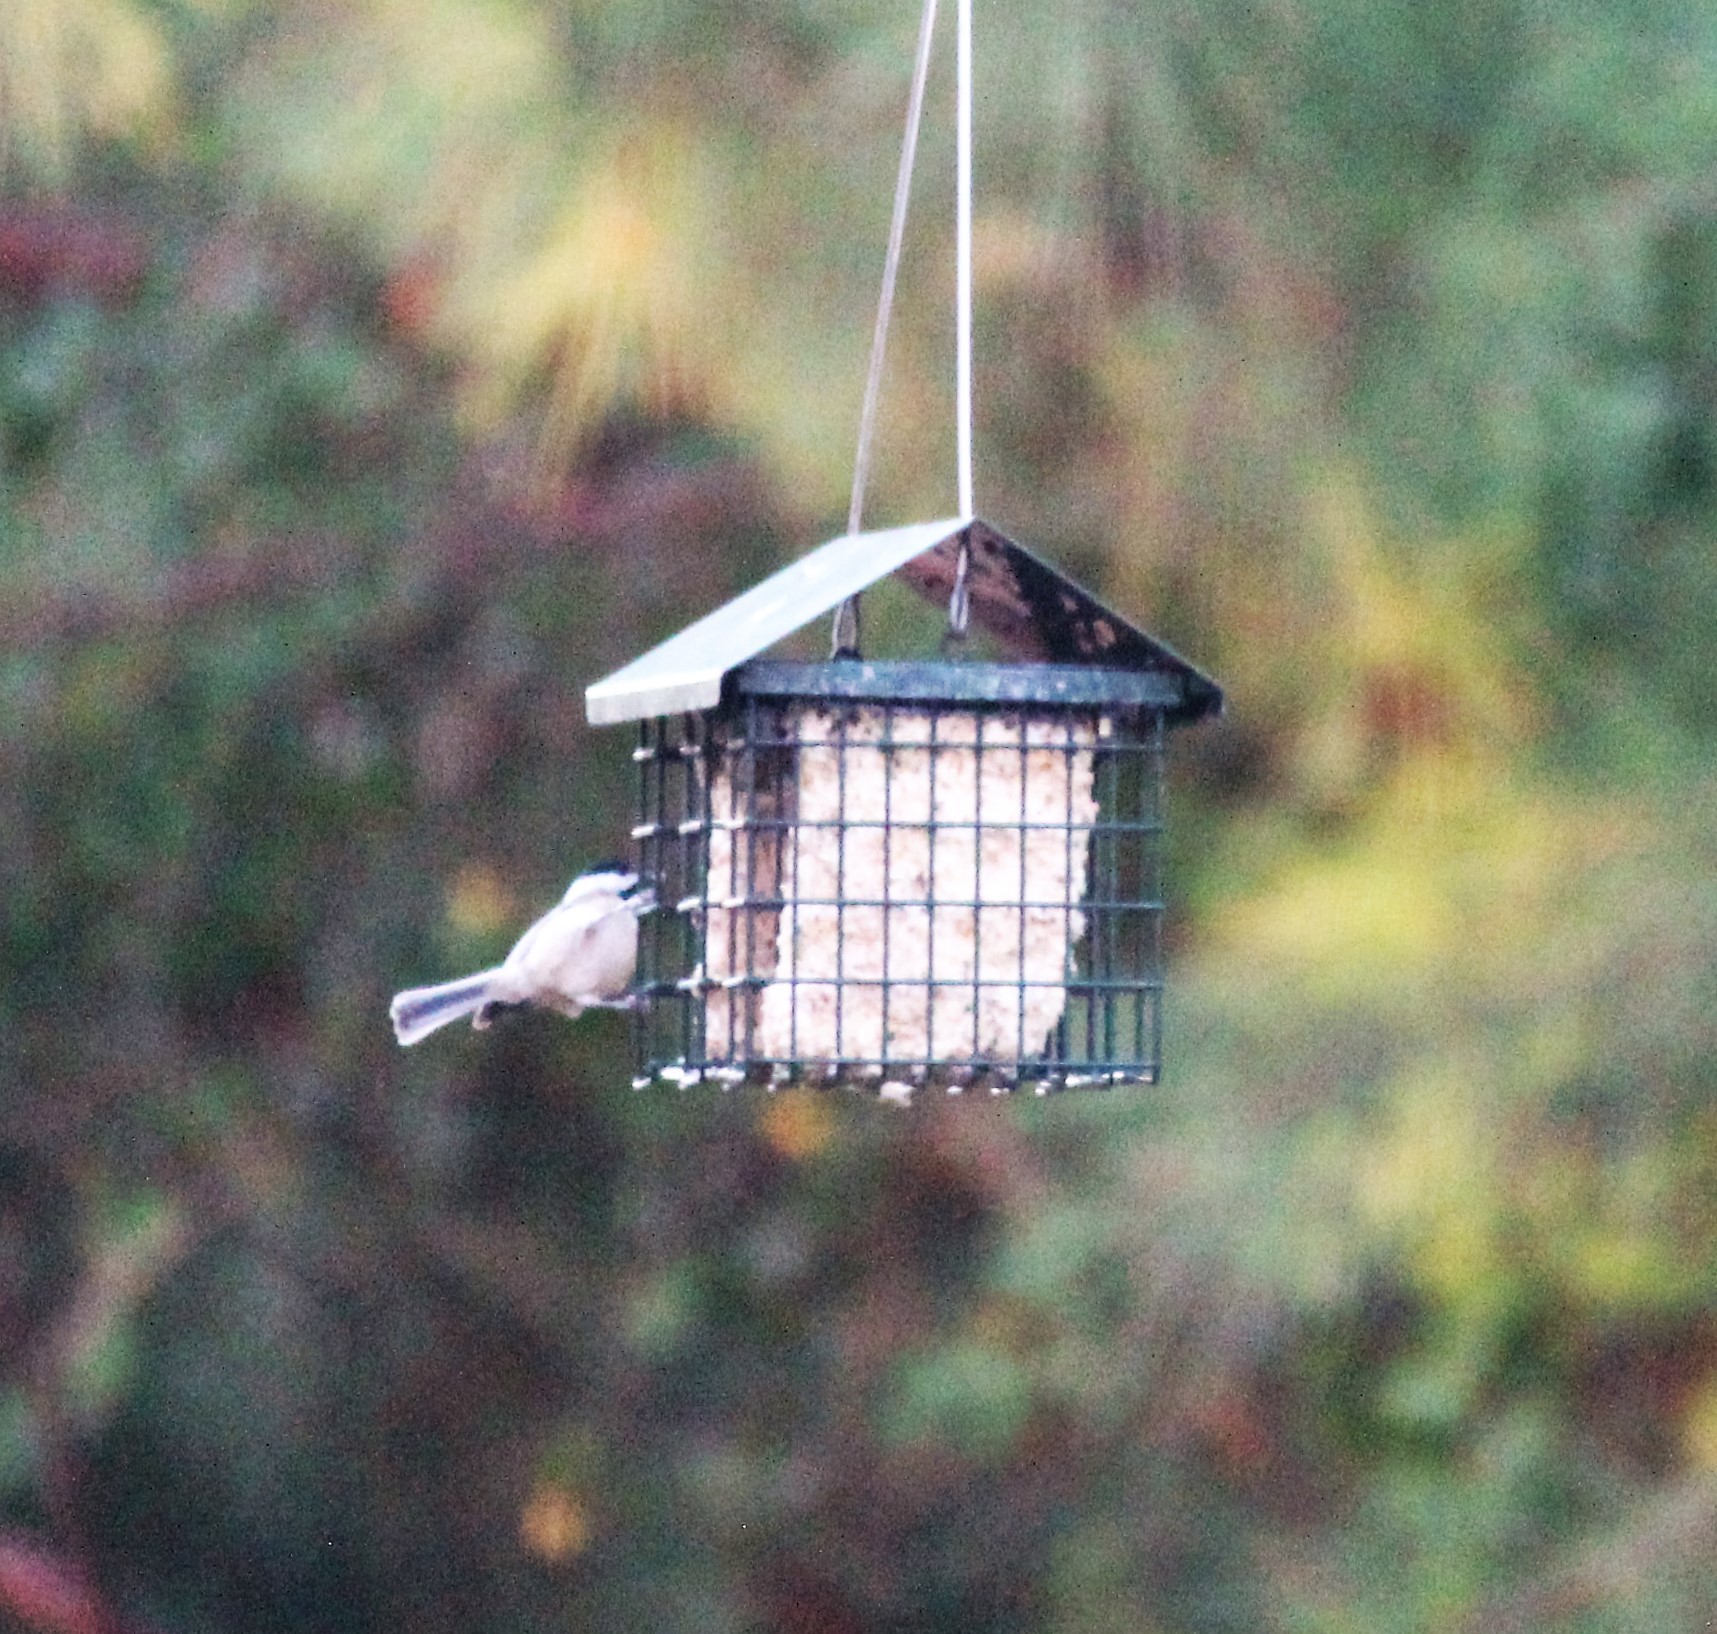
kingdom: Animalia
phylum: Chordata
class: Aves
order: Passeriformes
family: Paridae
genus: Poecile
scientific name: Poecile carolinensis
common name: Carolina chickadee
